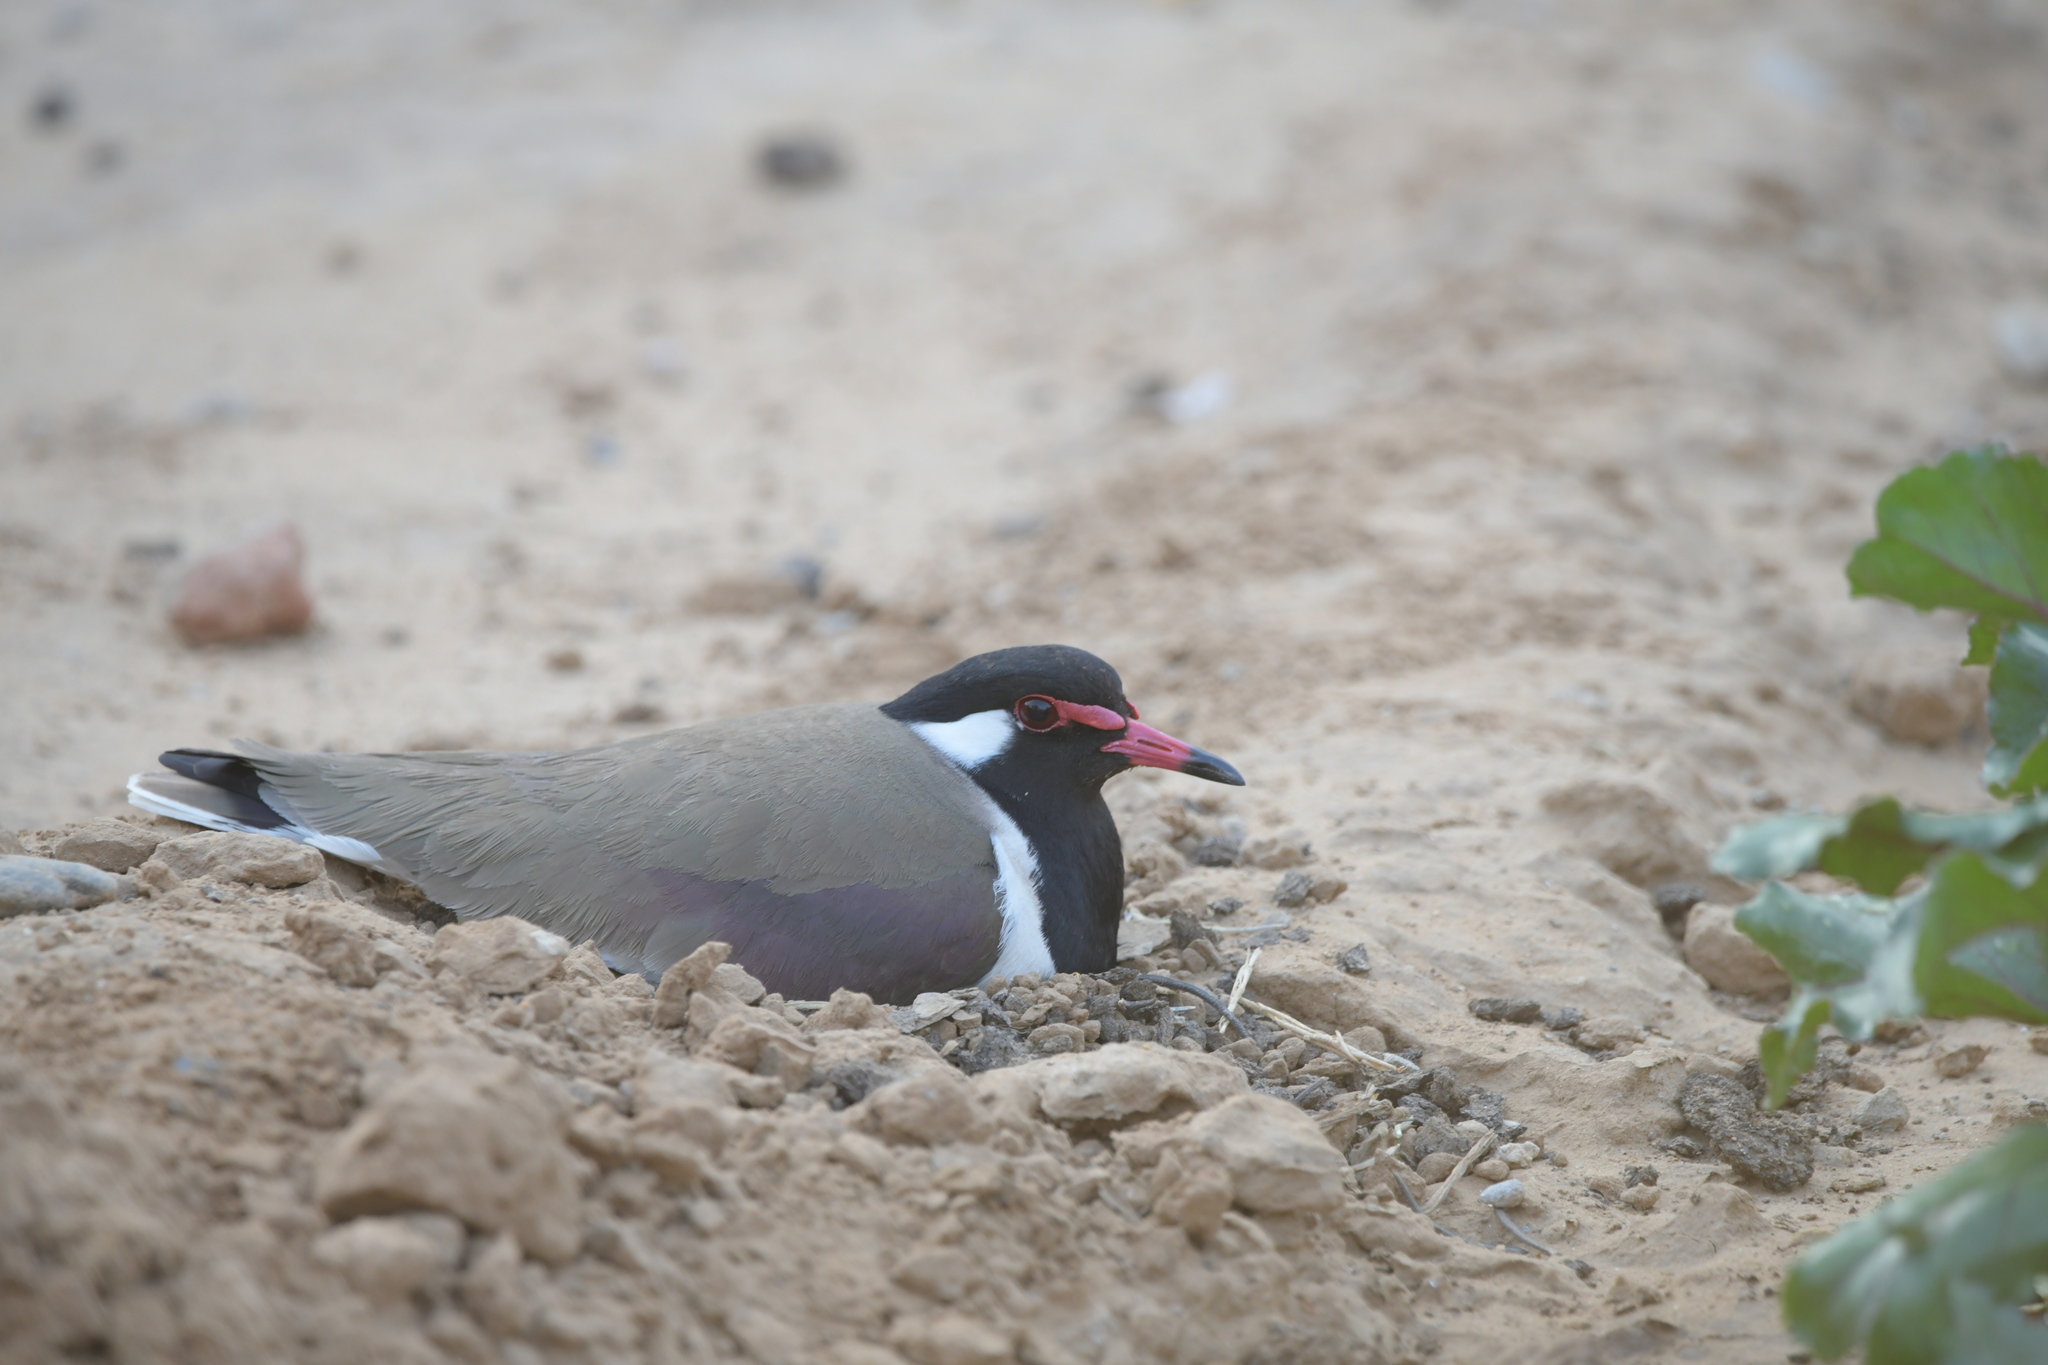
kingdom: Animalia
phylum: Chordata
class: Aves
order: Charadriiformes
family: Charadriidae
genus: Vanellus
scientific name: Vanellus indicus
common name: Red-wattled lapwing
